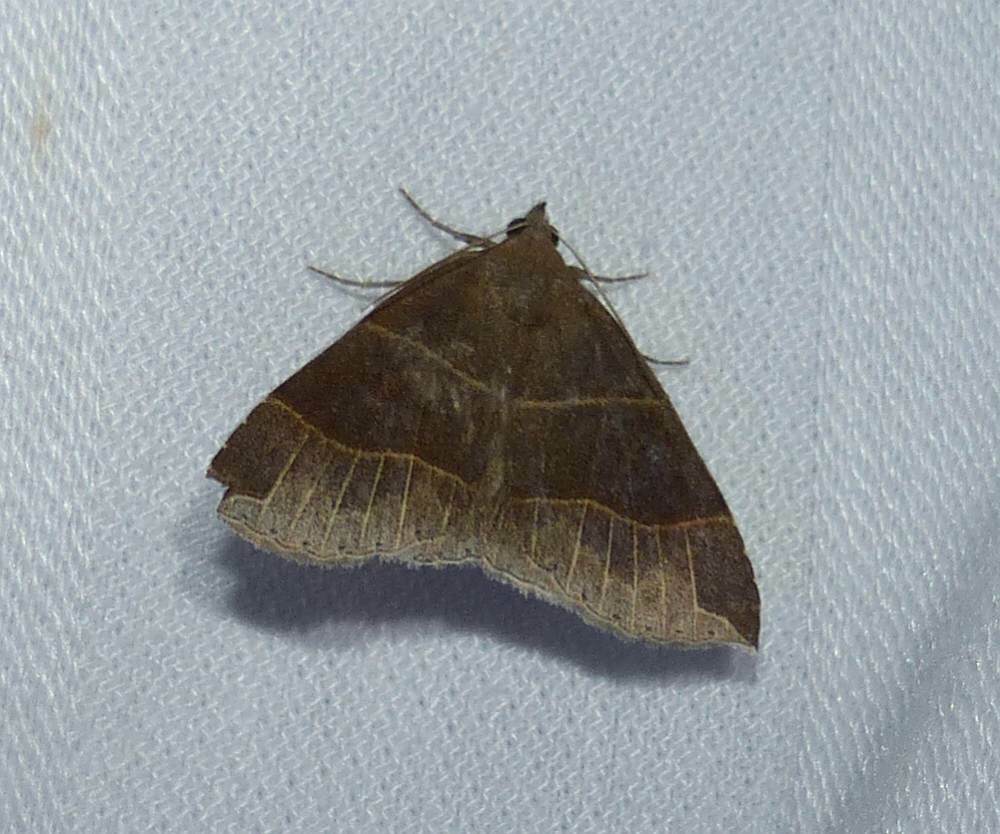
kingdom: Animalia
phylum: Arthropoda
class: Insecta
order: Lepidoptera
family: Erebidae
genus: Parallelia
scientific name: Parallelia bistriaris
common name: Maple looper moth
